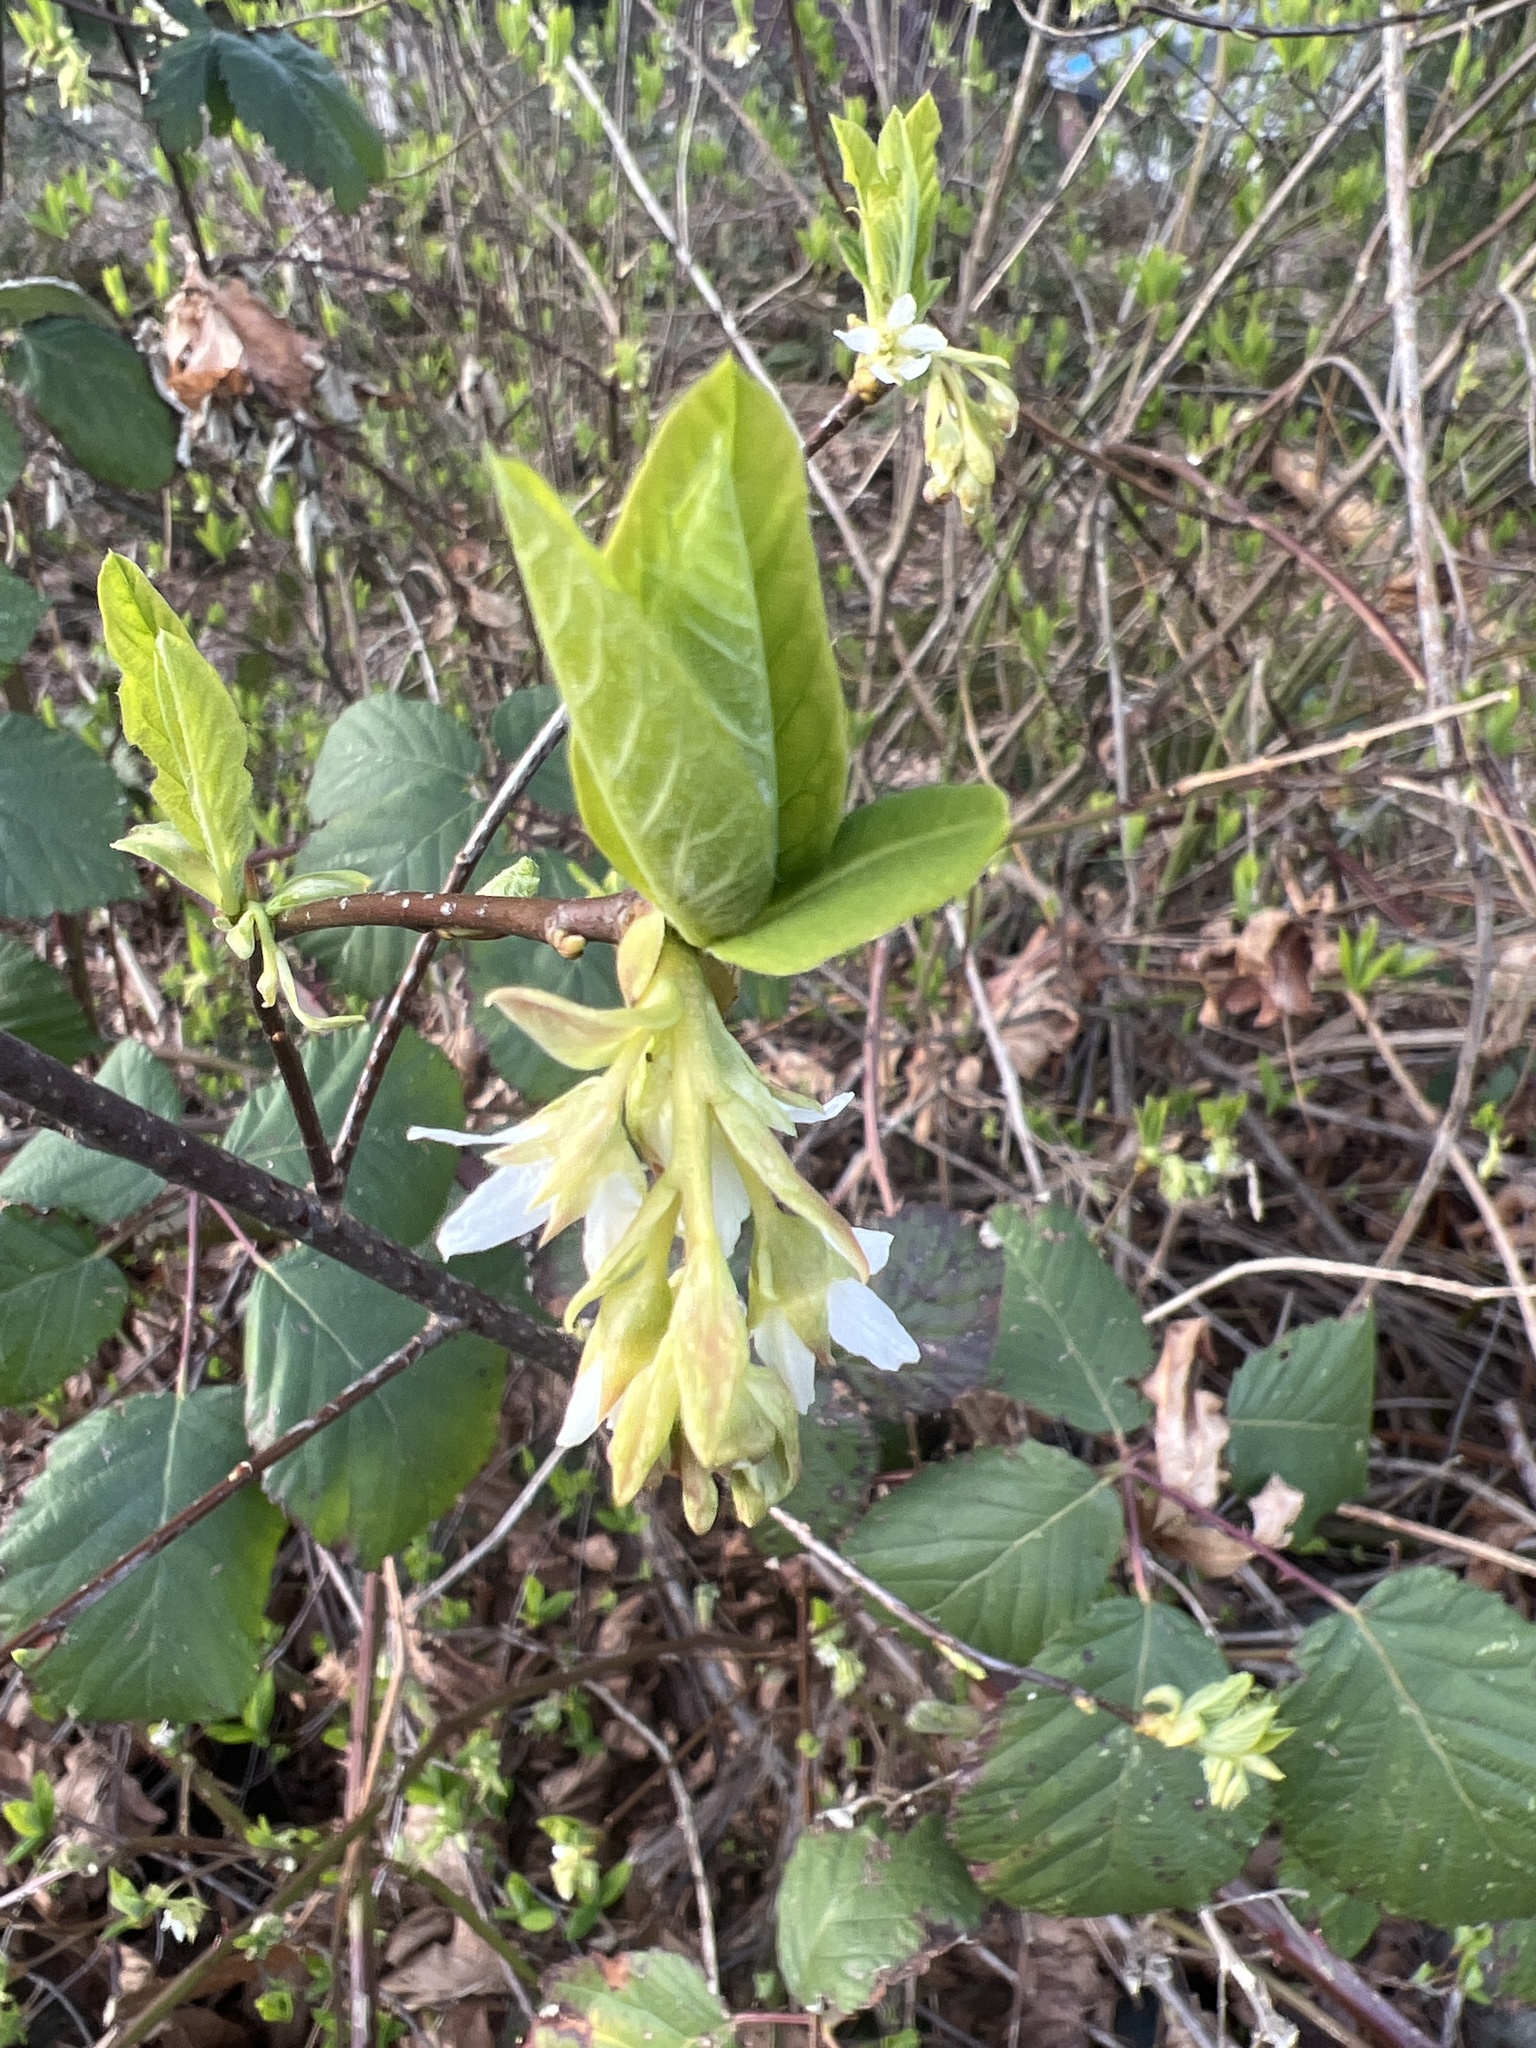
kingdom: Plantae
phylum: Tracheophyta
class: Magnoliopsida
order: Rosales
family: Rosaceae
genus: Oemleria
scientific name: Oemleria cerasiformis
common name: Osoberry
